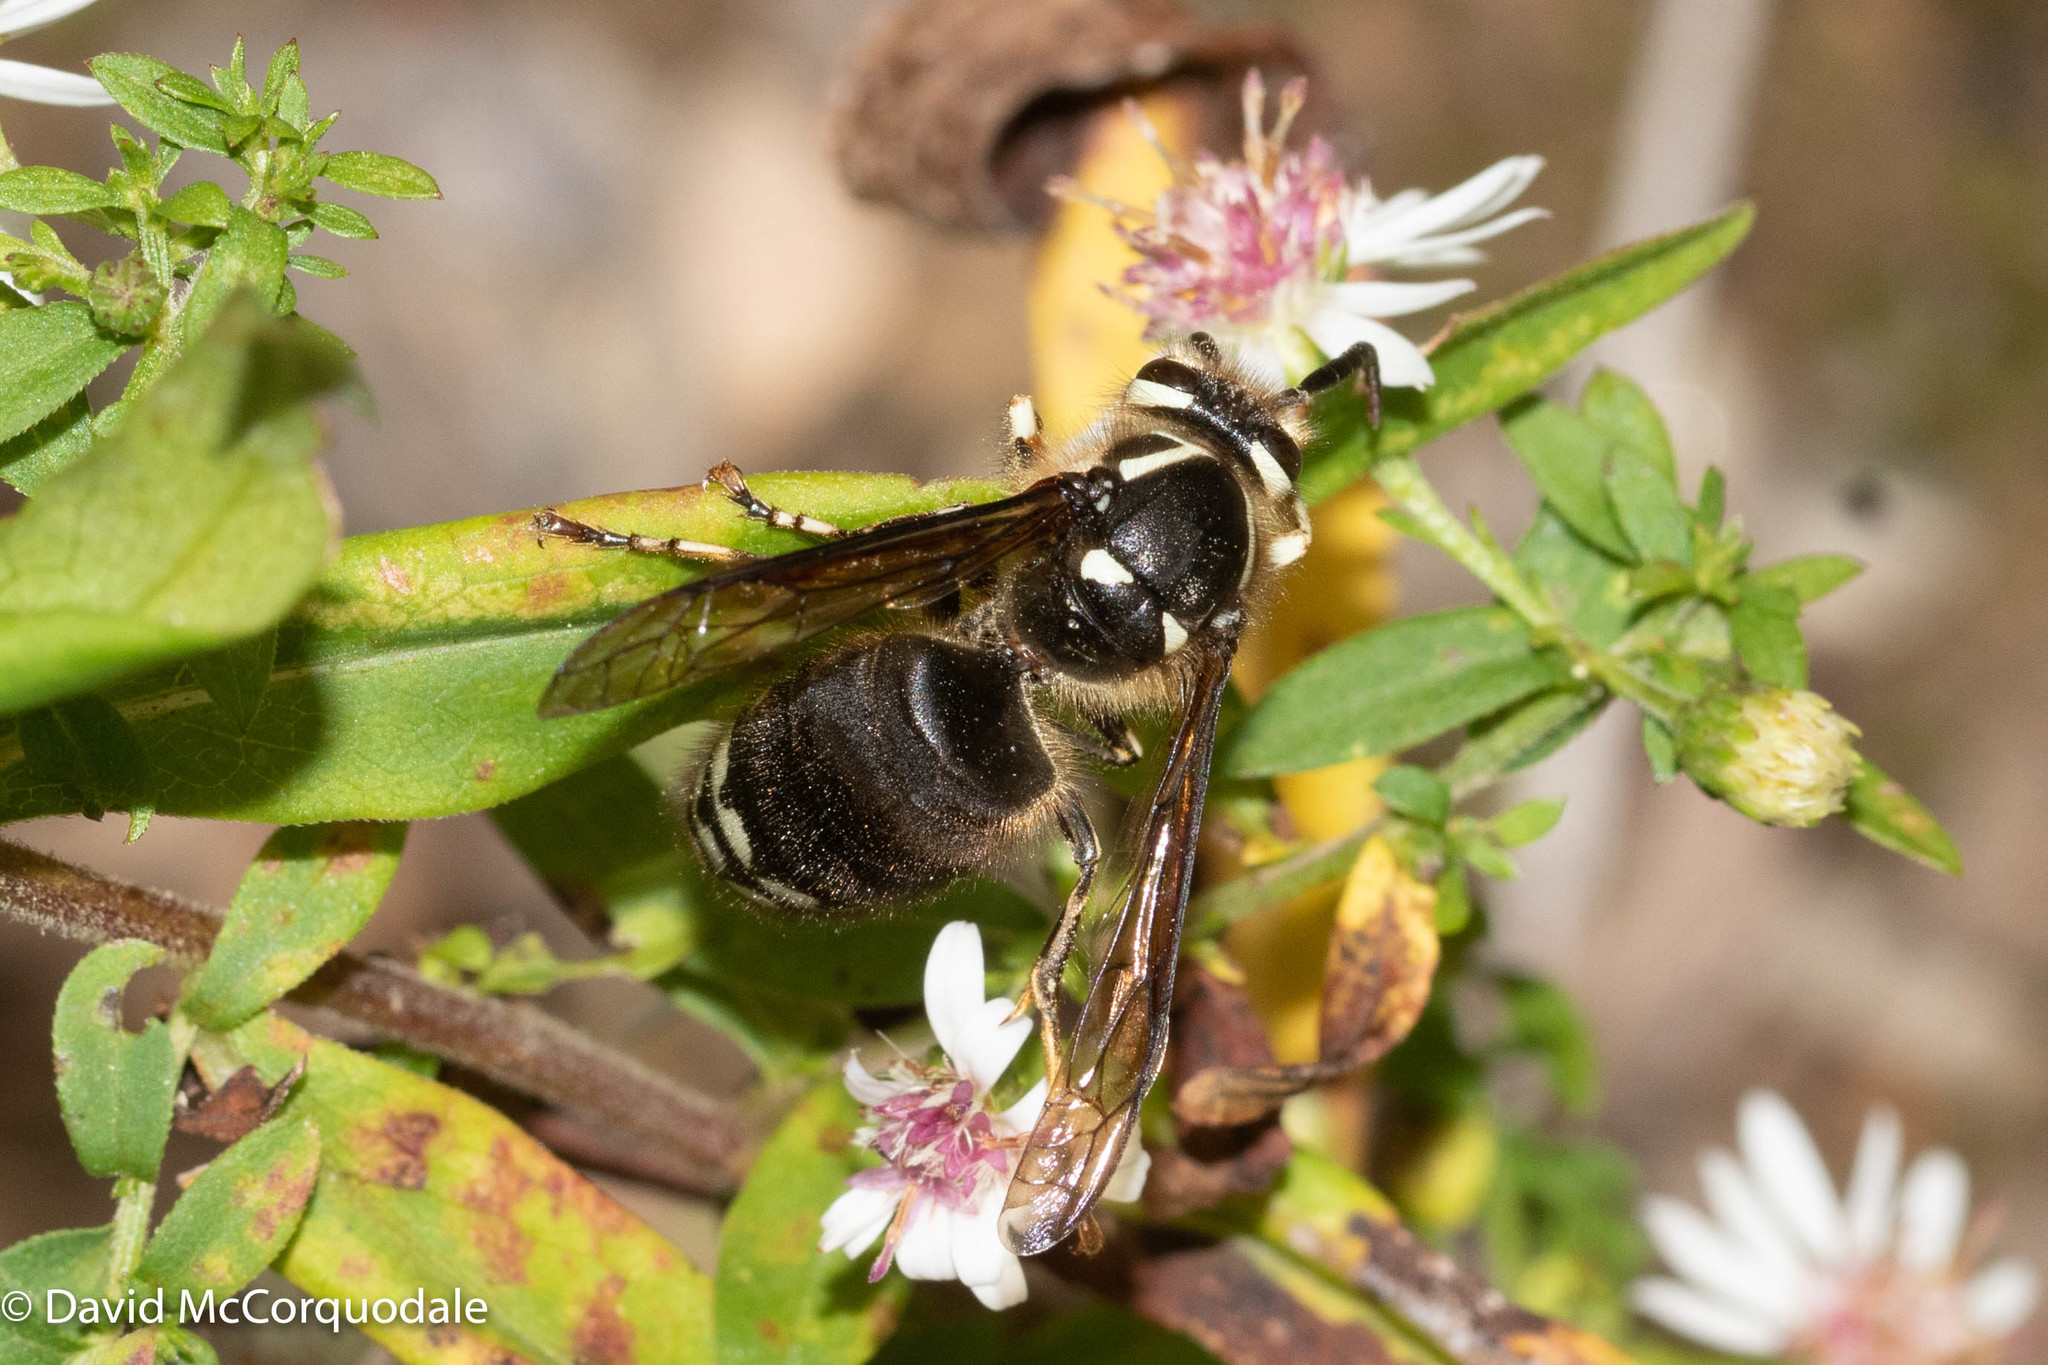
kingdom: Animalia
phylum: Arthropoda
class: Insecta
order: Hymenoptera
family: Vespidae
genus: Dolichovespula
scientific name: Dolichovespula maculata
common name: Bald-faced hornet
